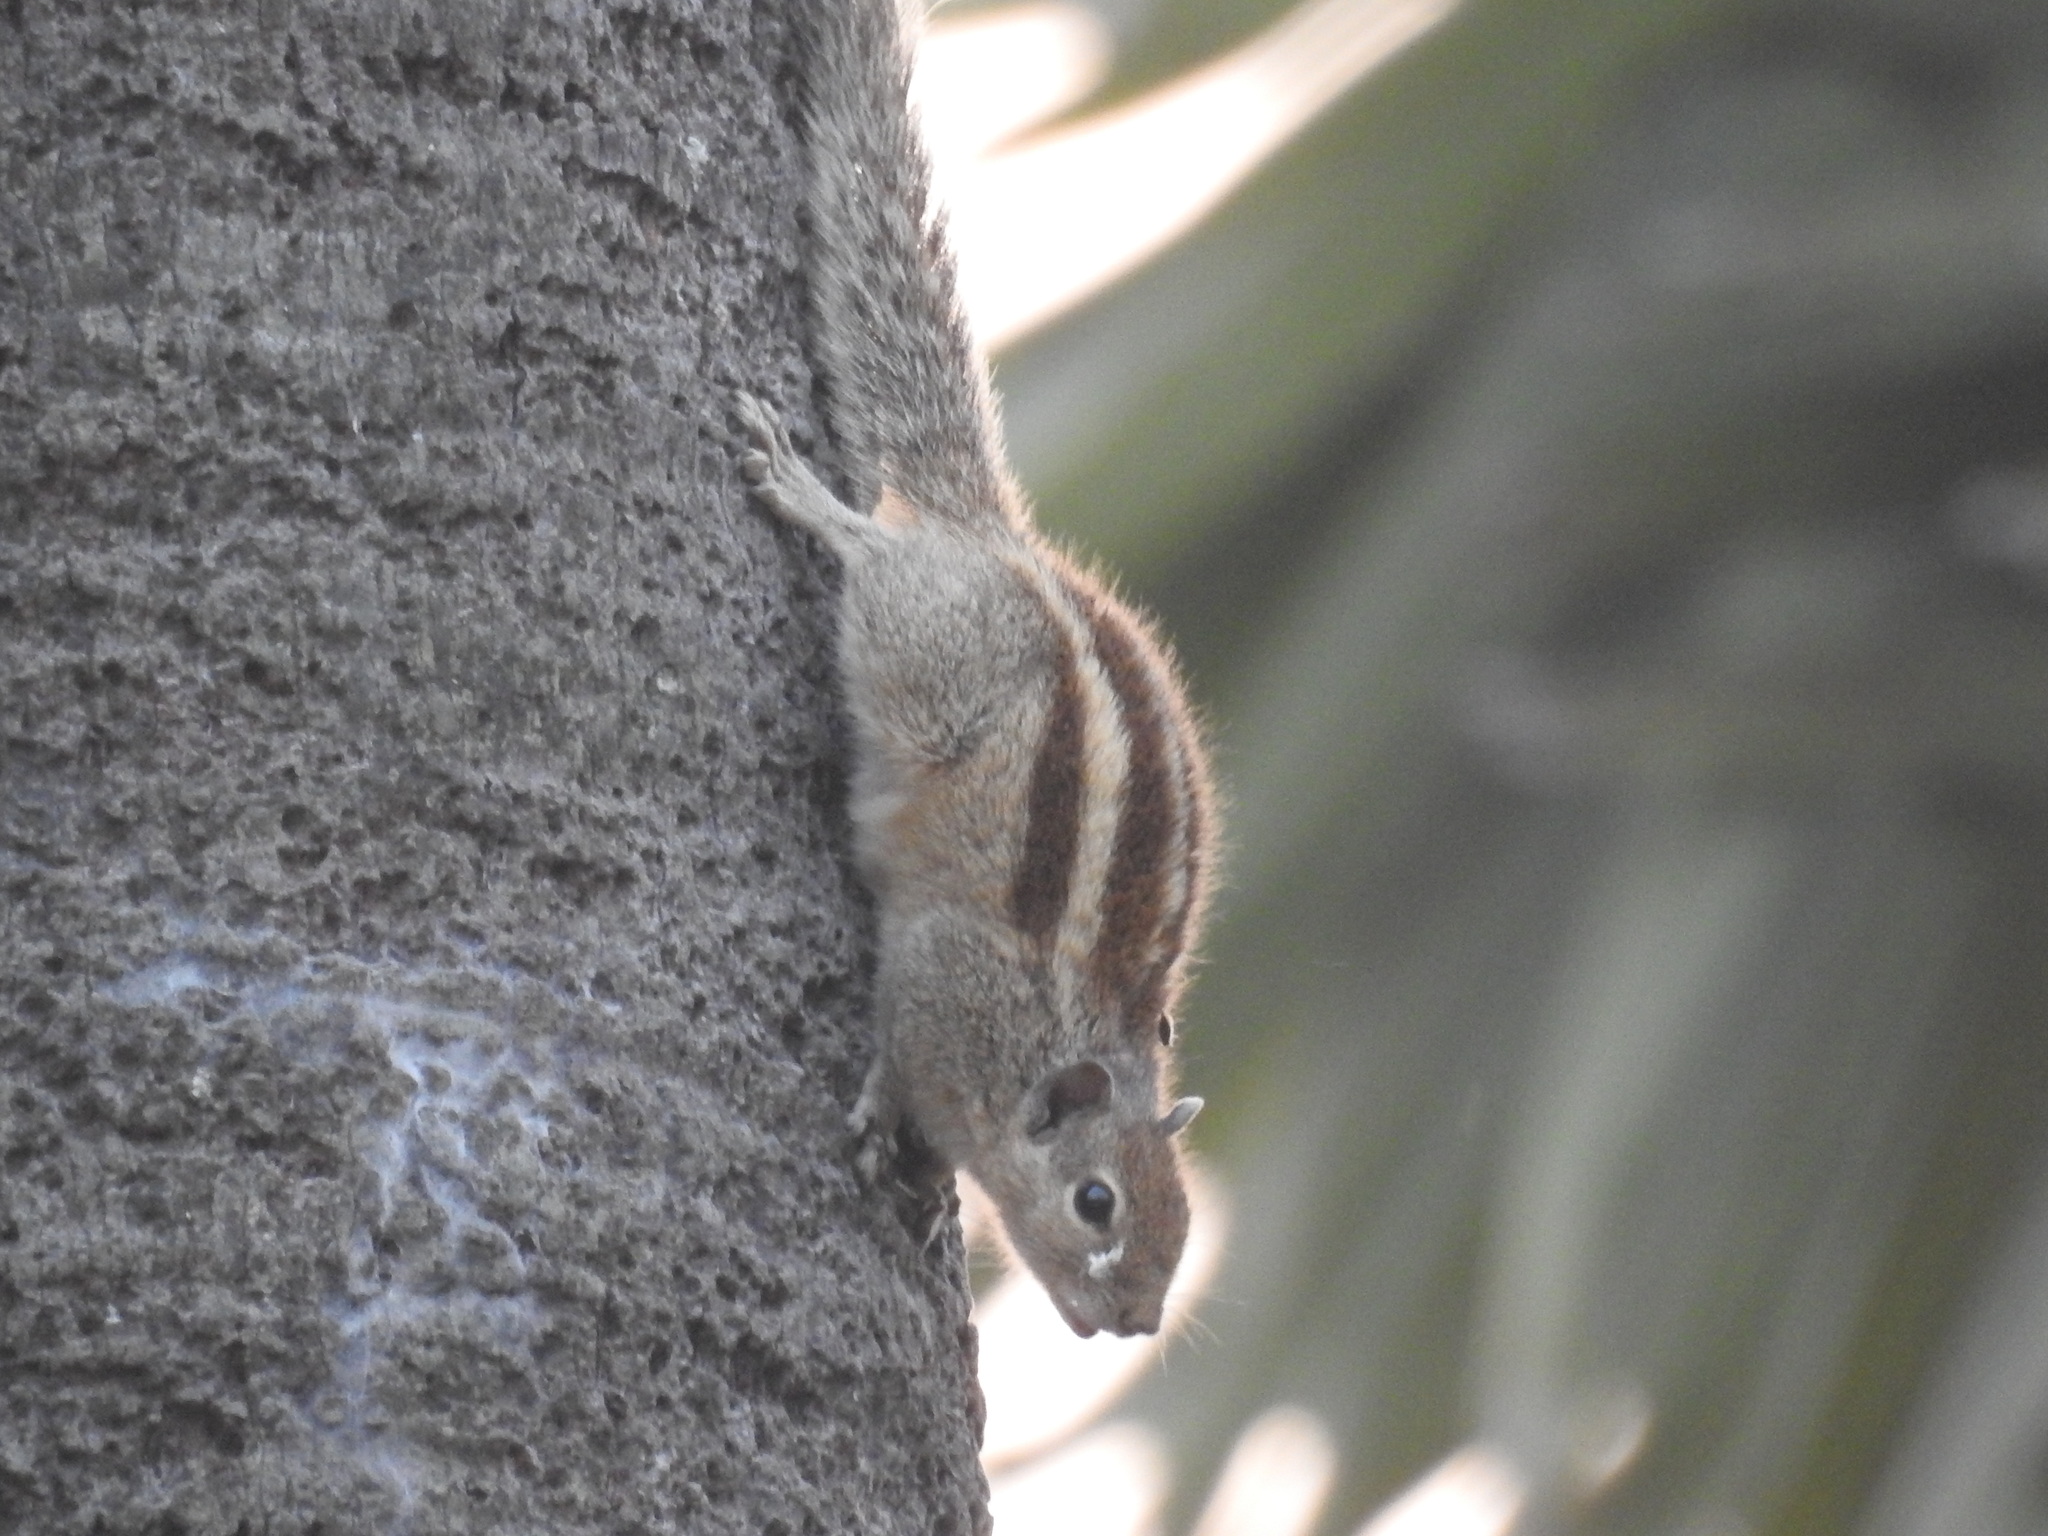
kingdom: Animalia
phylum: Chordata
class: Mammalia
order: Rodentia
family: Sciuridae
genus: Funambulus
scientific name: Funambulus palmarum
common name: Indian palm squirrel
